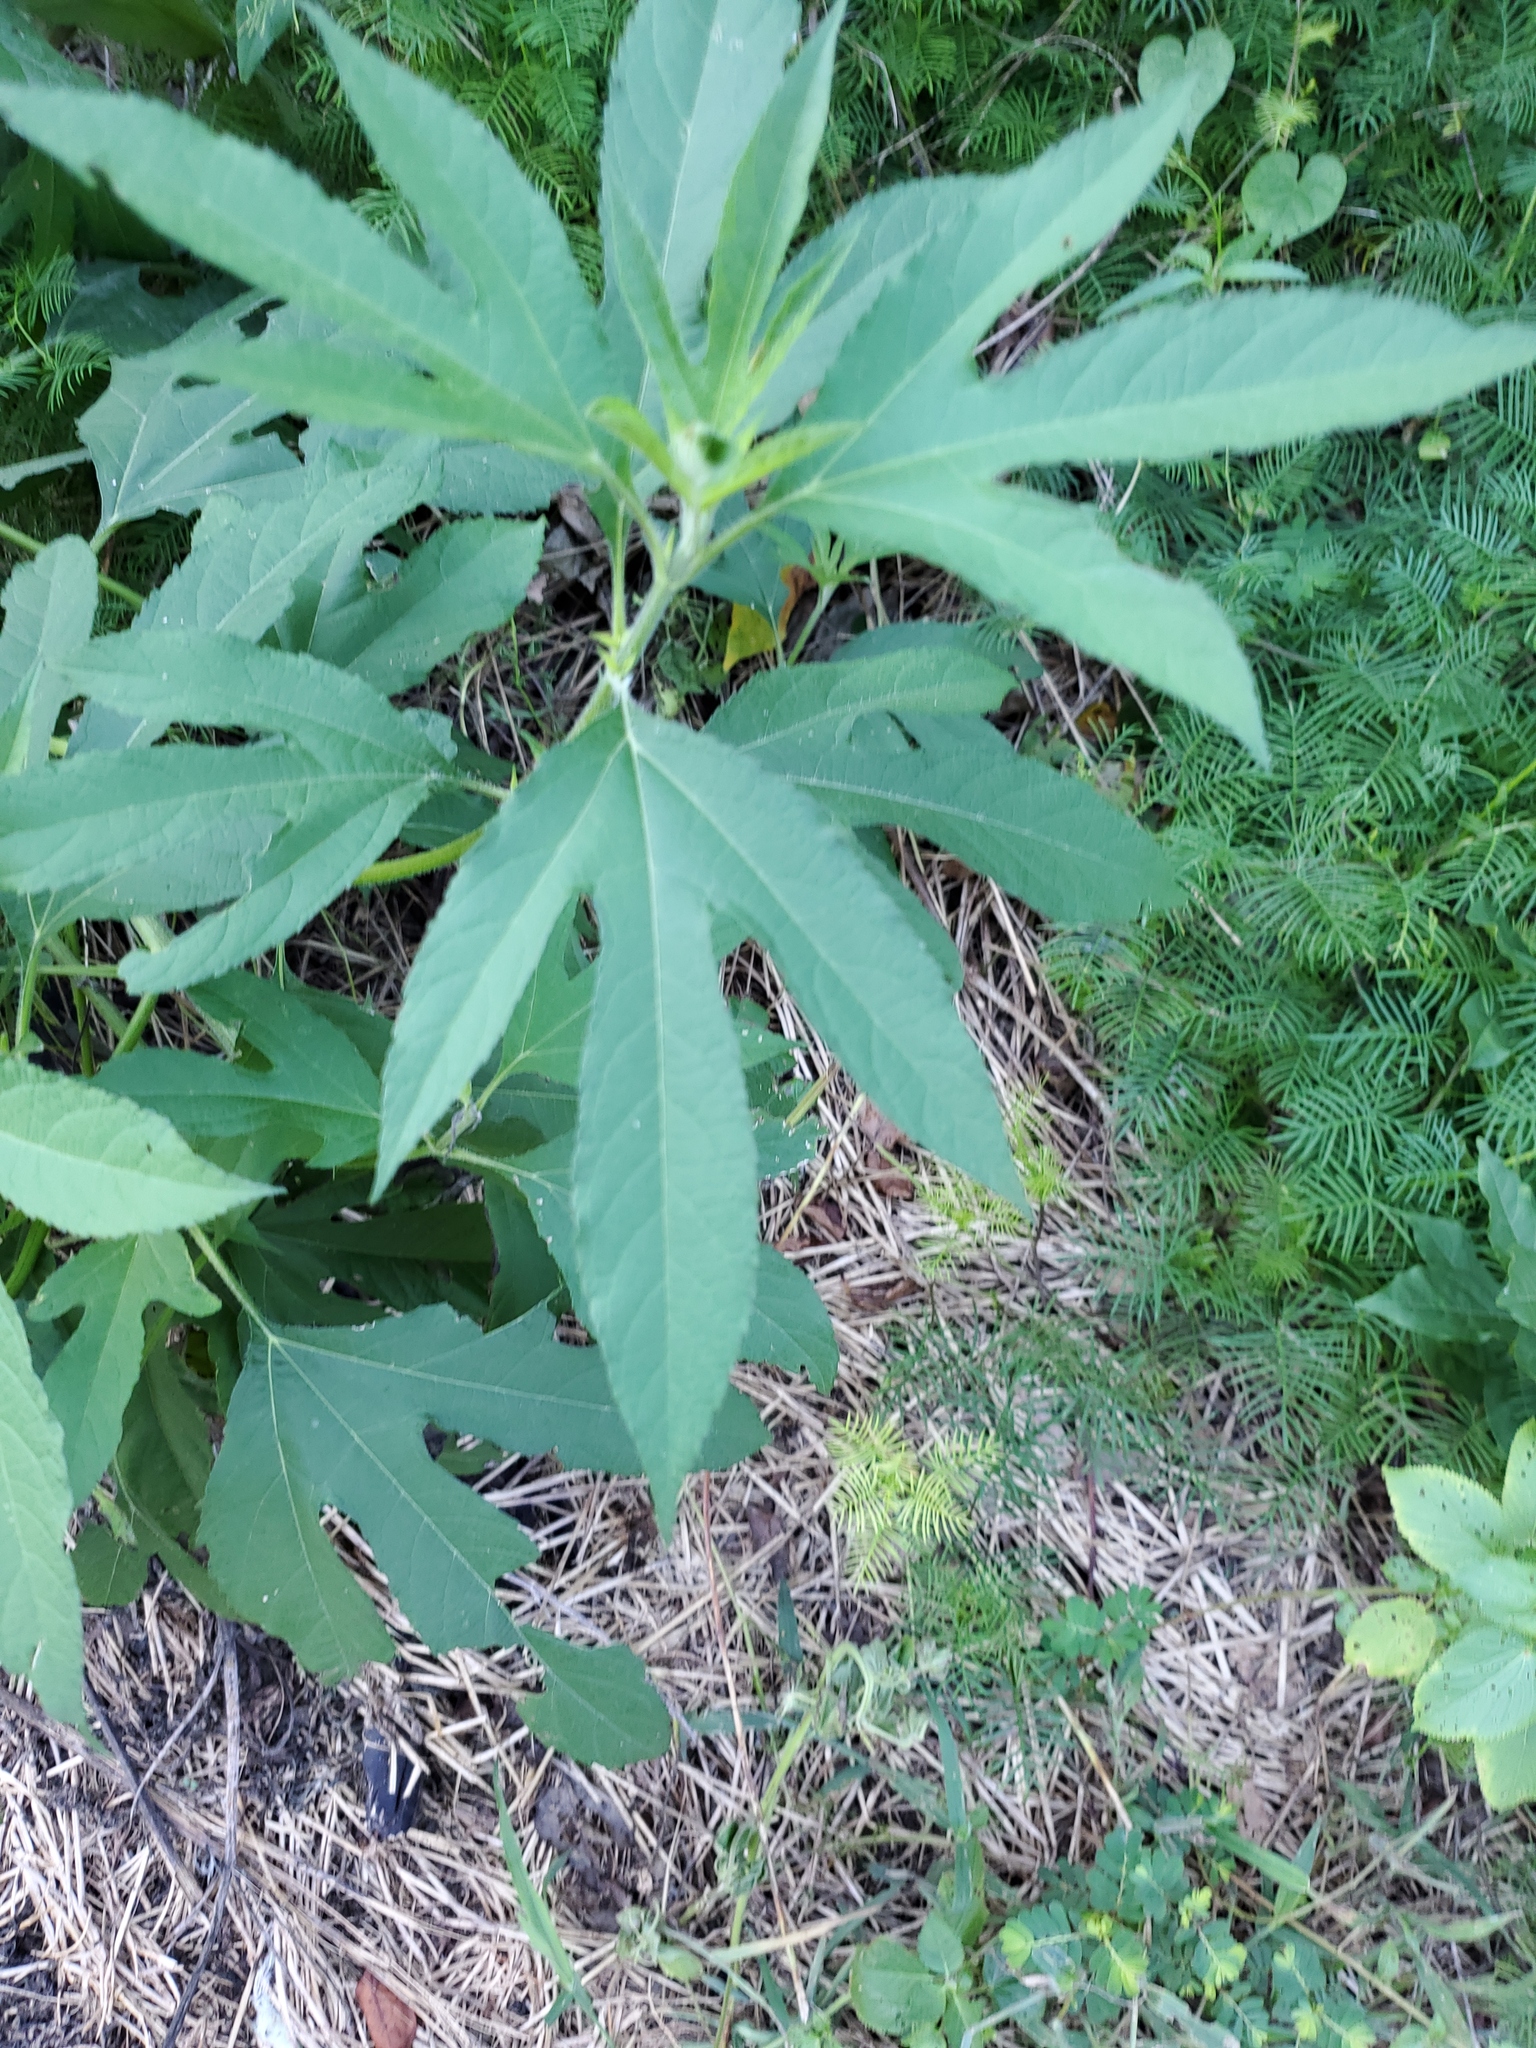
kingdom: Plantae
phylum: Tracheophyta
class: Magnoliopsida
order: Asterales
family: Asteraceae
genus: Ambrosia
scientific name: Ambrosia trifida
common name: Giant ragweed
